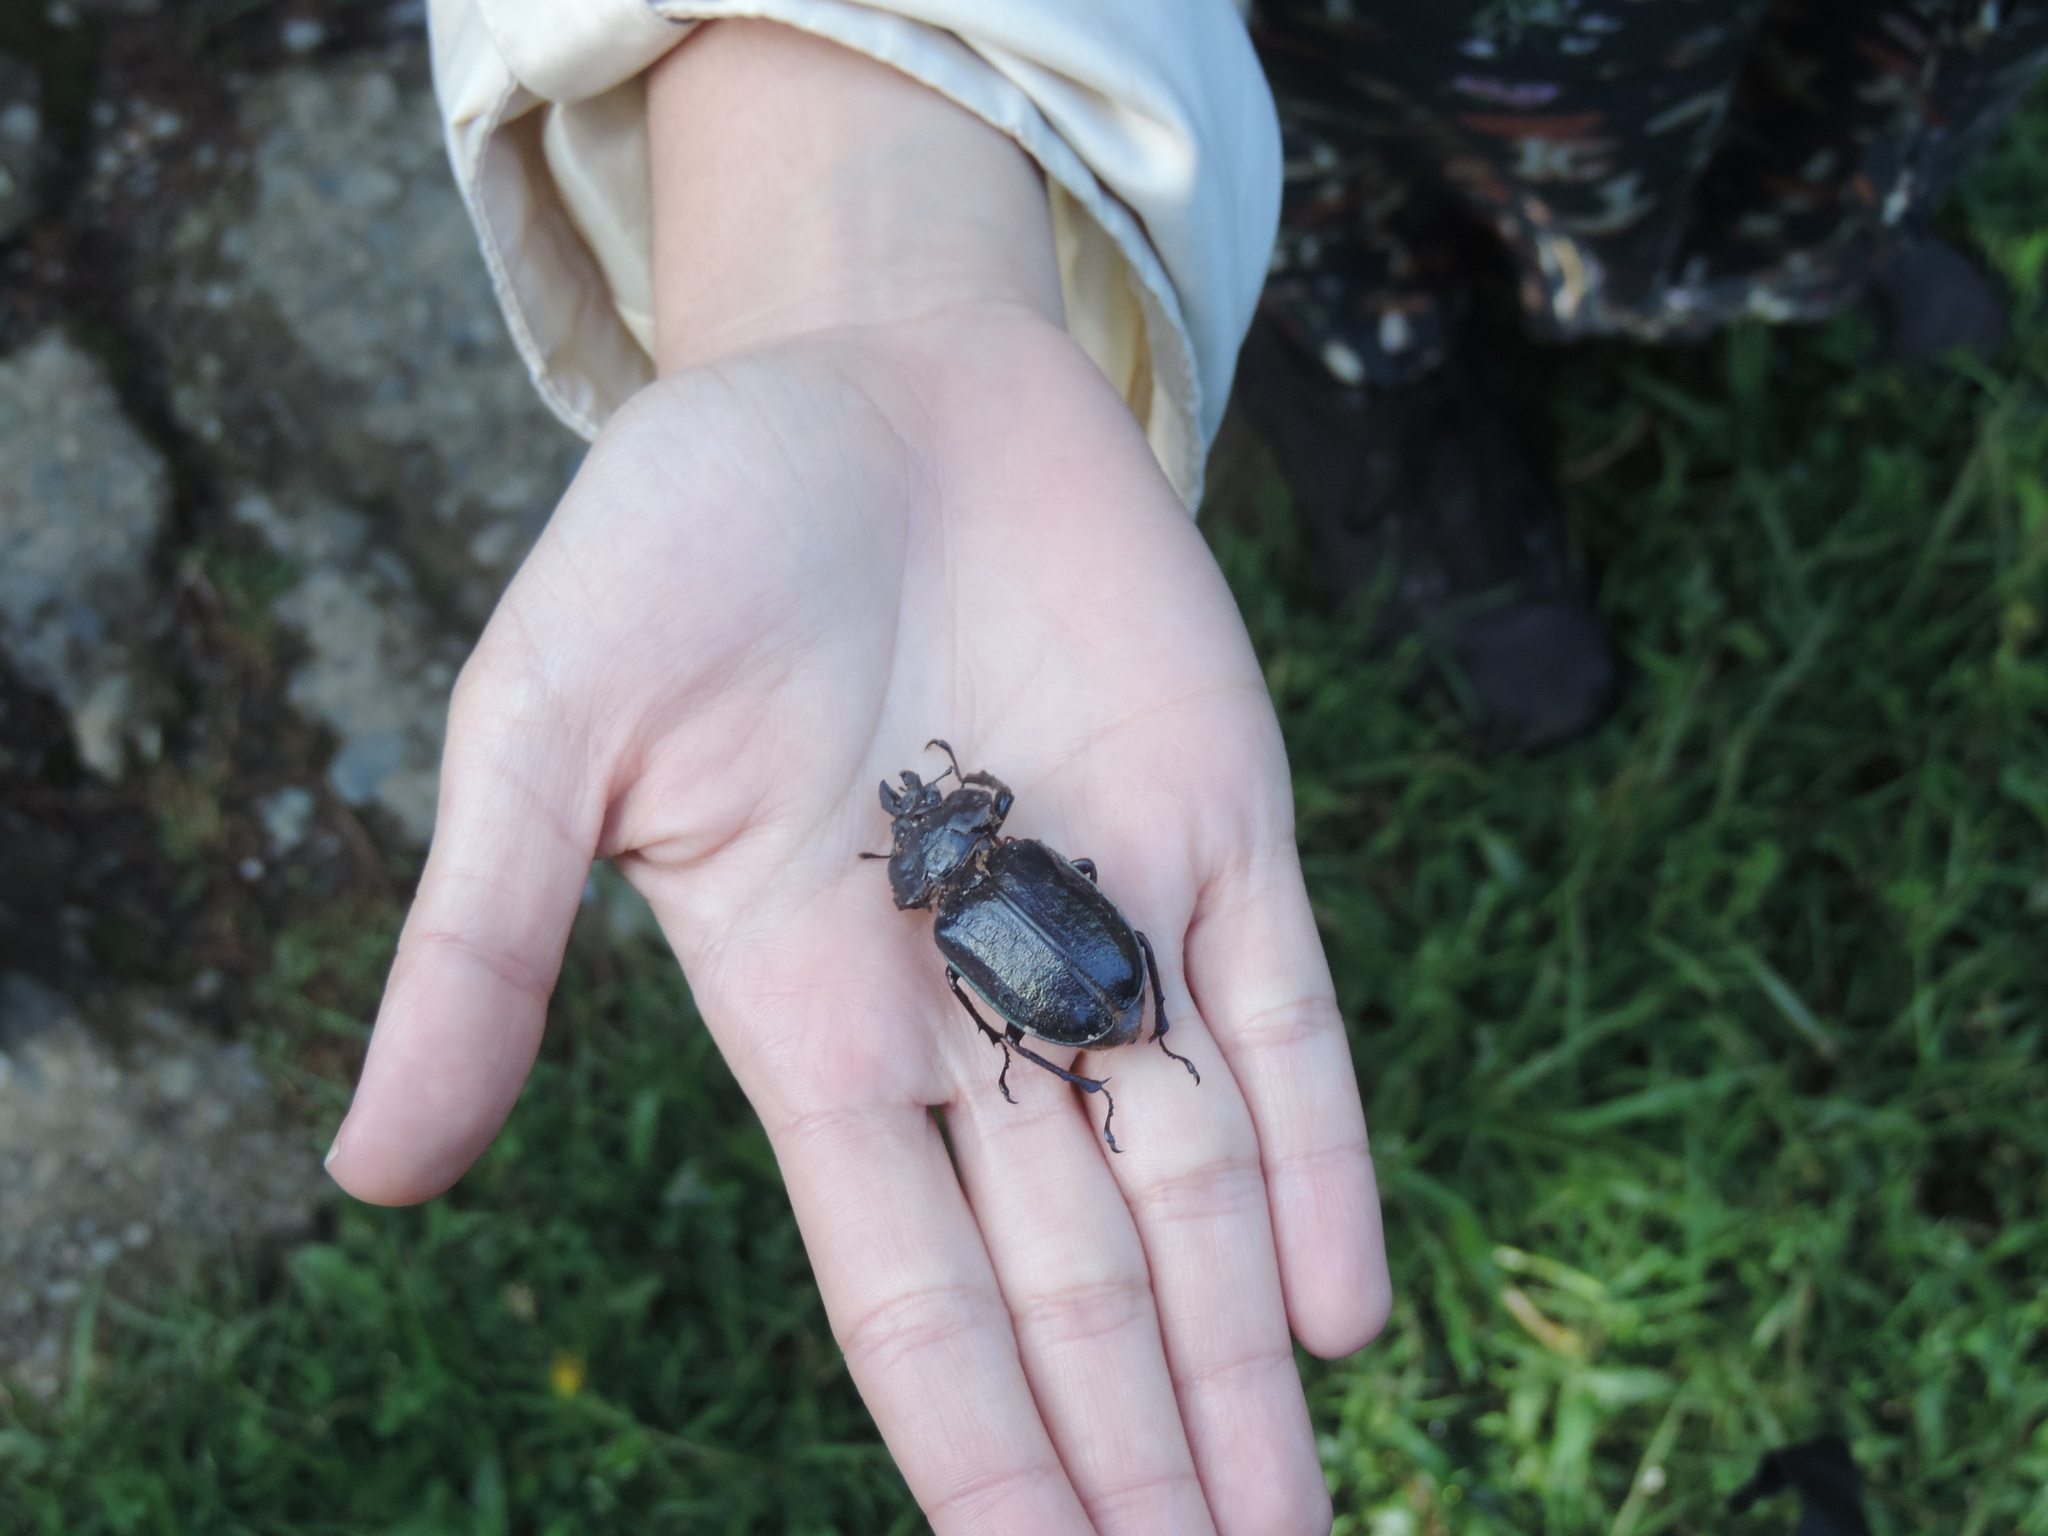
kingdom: Animalia
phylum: Arthropoda
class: Insecta
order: Coleoptera
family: Lucanidae
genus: Sphaenognathus
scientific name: Sphaenognathus pubescens
